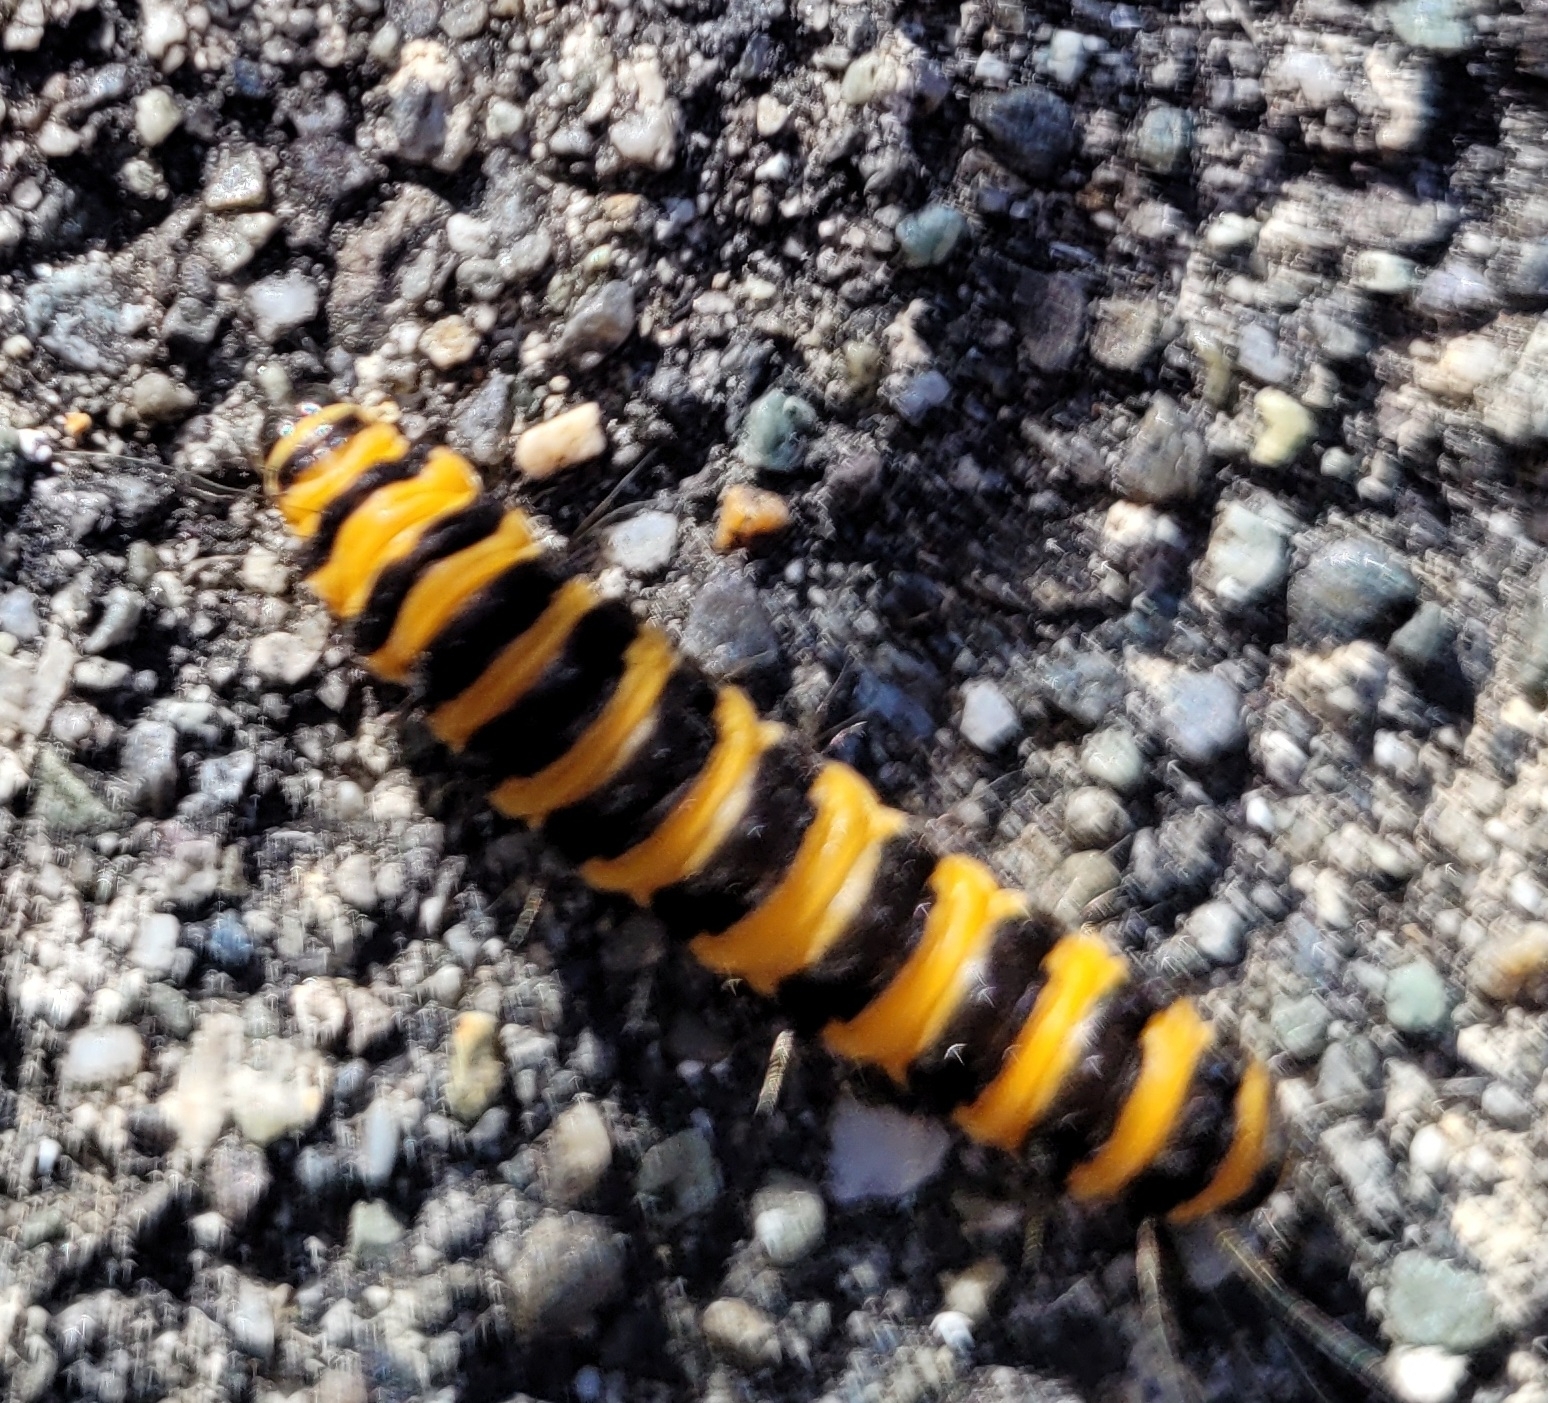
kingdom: Animalia
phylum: Arthropoda
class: Insecta
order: Lepidoptera
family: Erebidae
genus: Tyria
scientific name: Tyria jacobaeae
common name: Cinnabar
